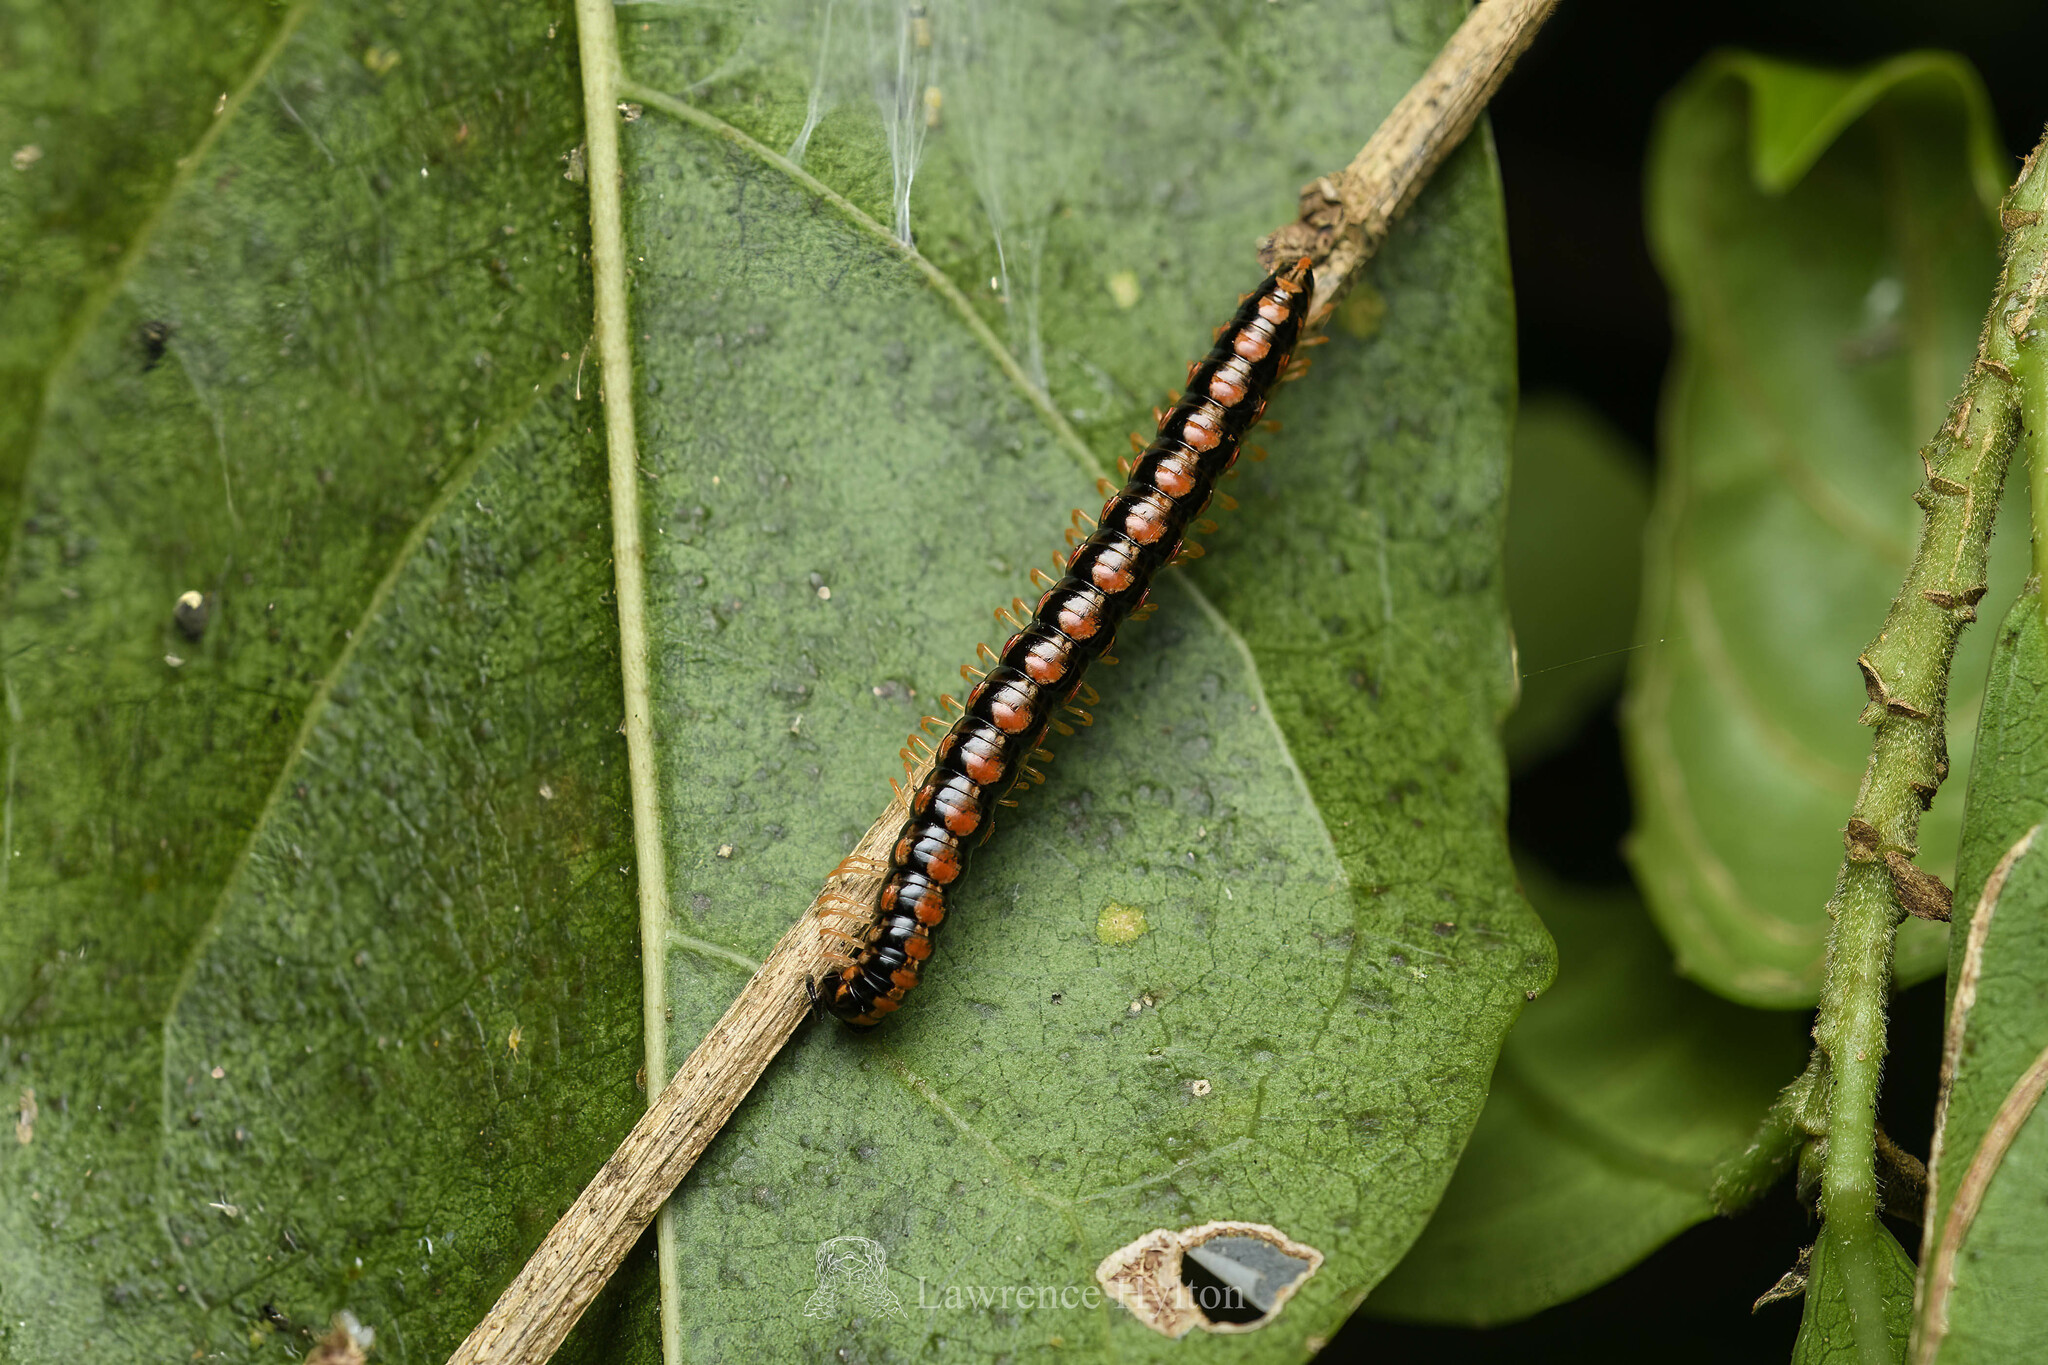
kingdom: Animalia
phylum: Arthropoda
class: Diplopoda
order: Polydesmida
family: Paradoxosomatidae
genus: Helicorthomorpha
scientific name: Helicorthomorpha holstii
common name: Millipede
